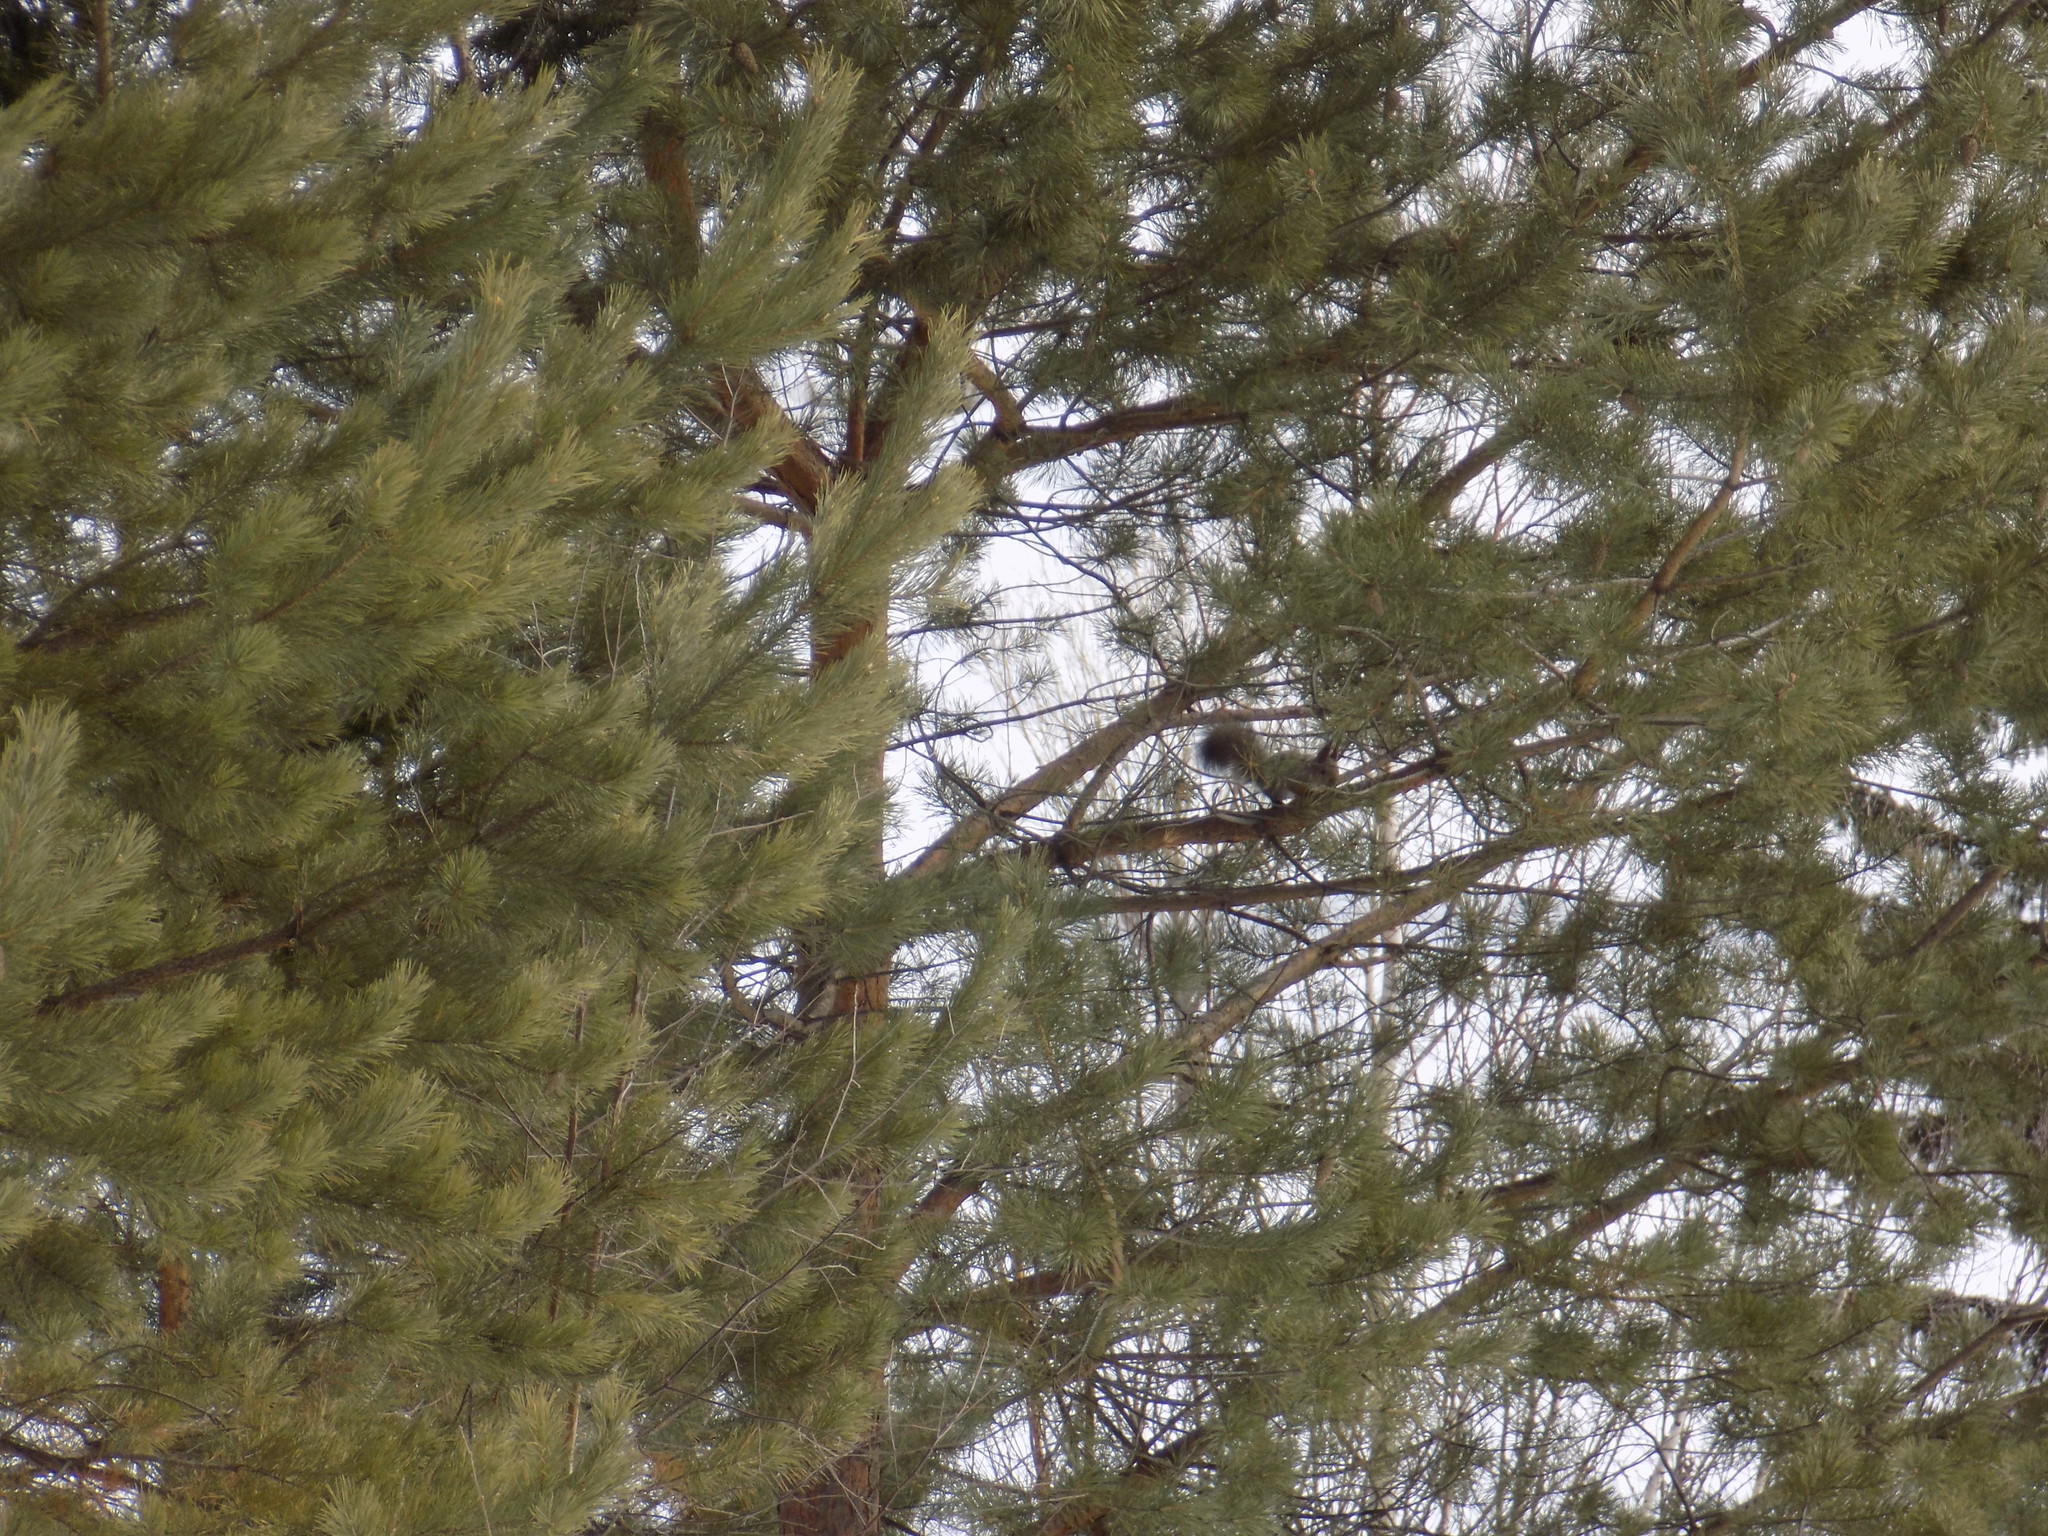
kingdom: Animalia
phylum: Chordata
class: Mammalia
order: Rodentia
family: Sciuridae
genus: Sciurus
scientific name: Sciurus vulgaris
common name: Eurasian red squirrel
